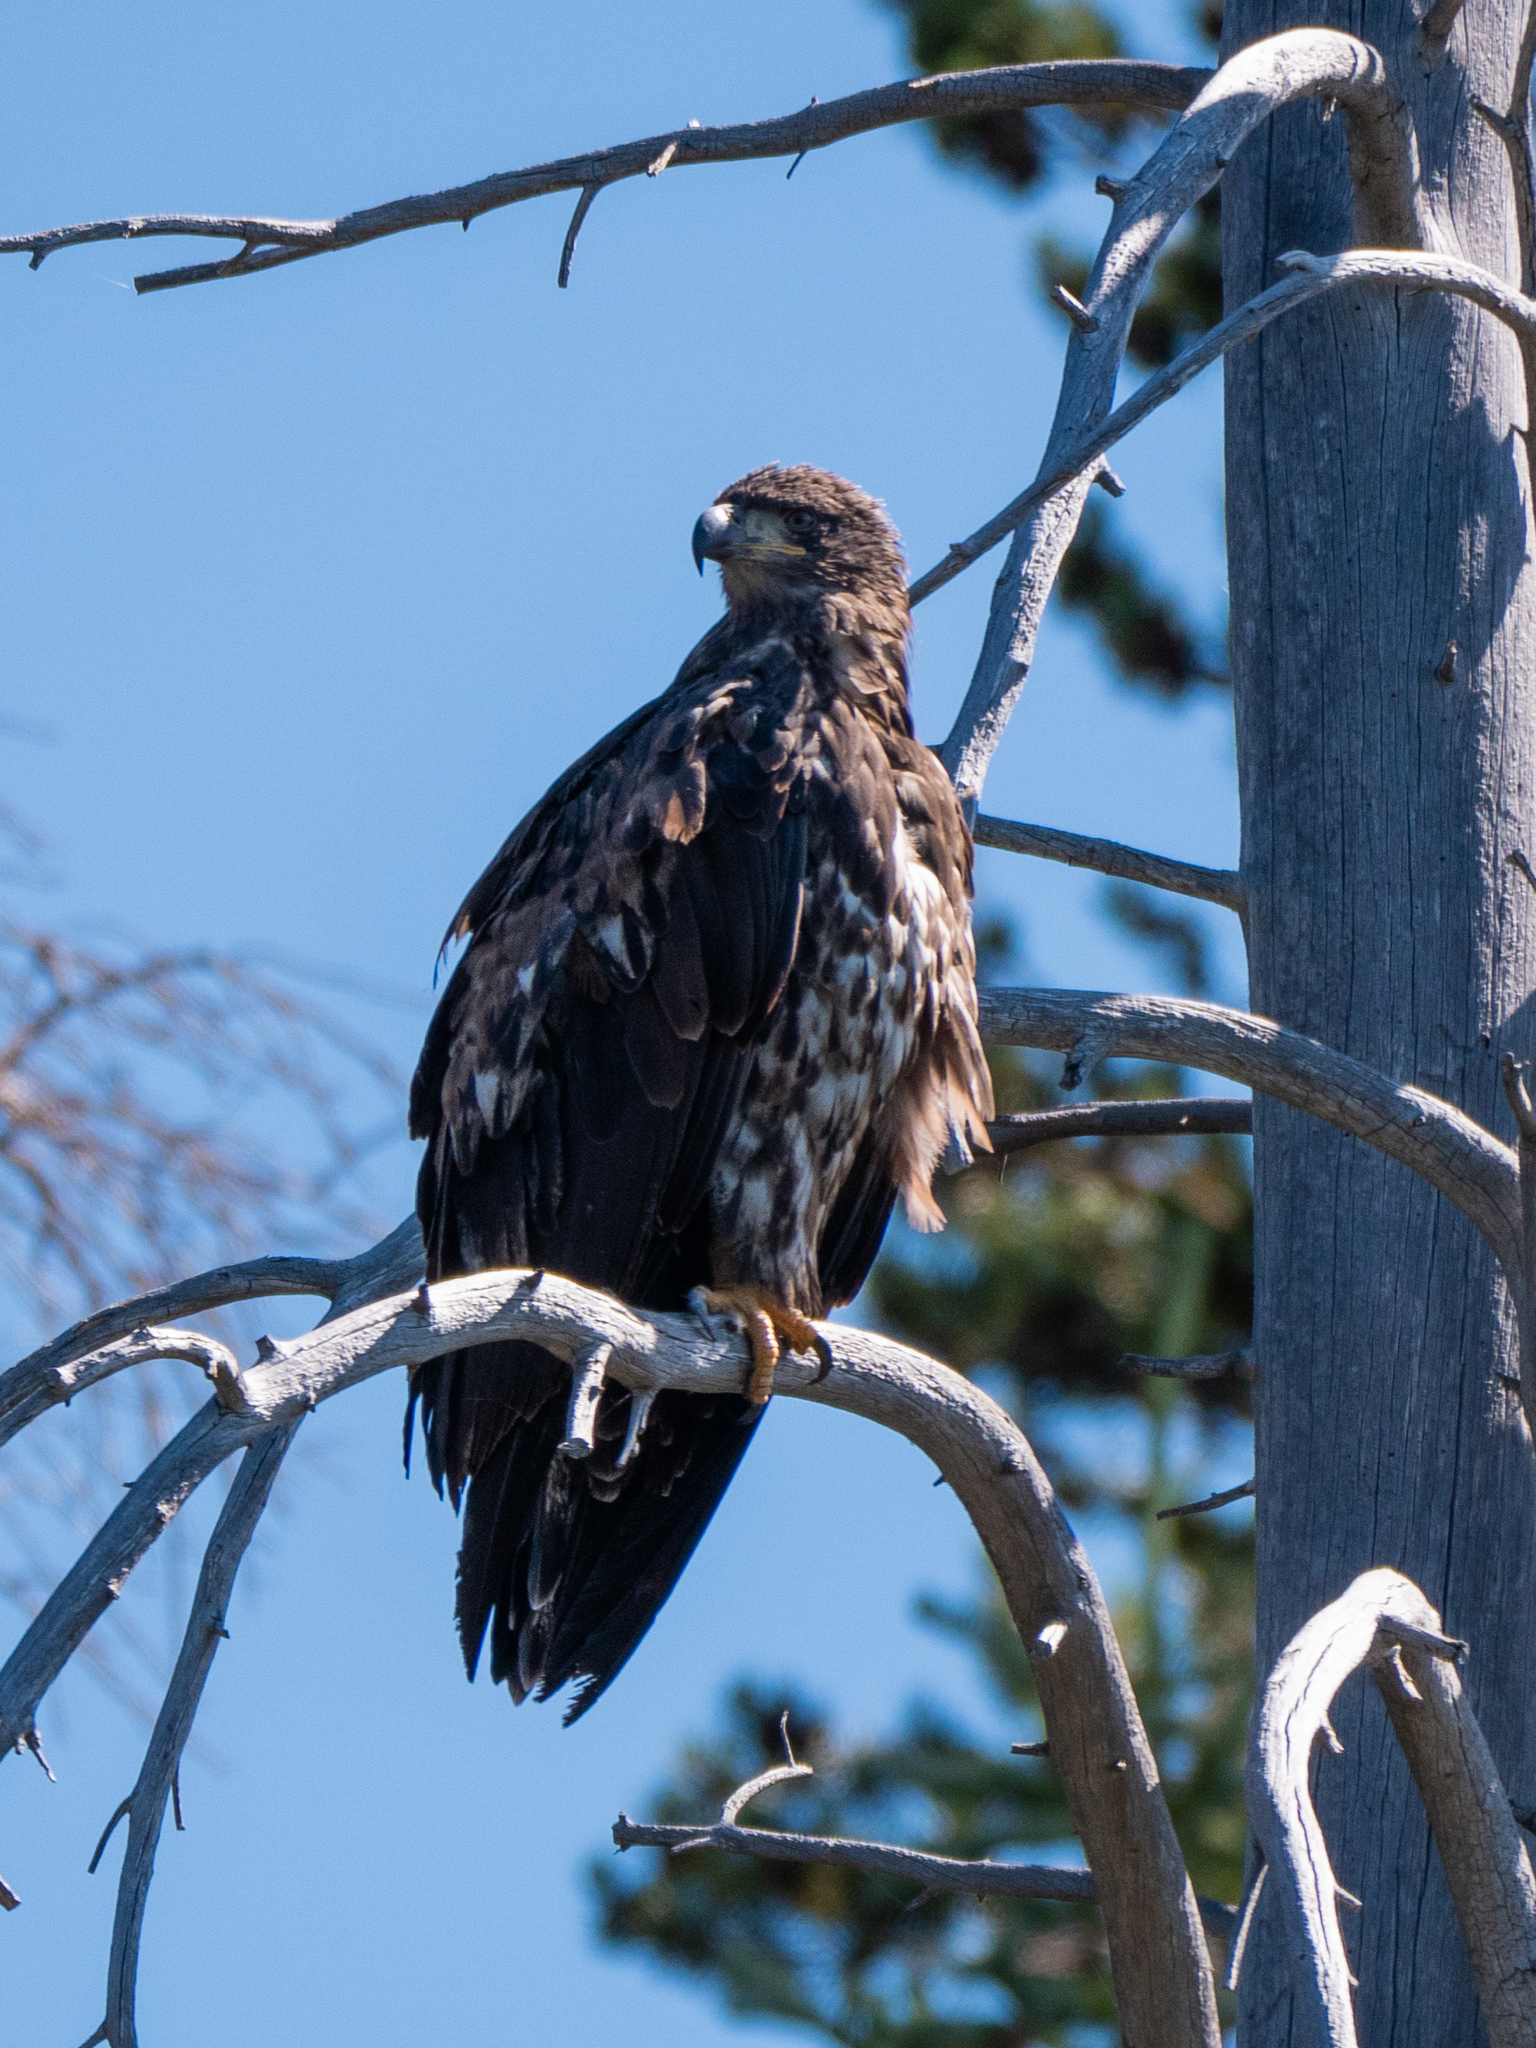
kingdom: Animalia
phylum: Chordata
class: Aves
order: Accipitriformes
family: Accipitridae
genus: Haliaeetus
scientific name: Haliaeetus leucocephalus
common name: Bald eagle
